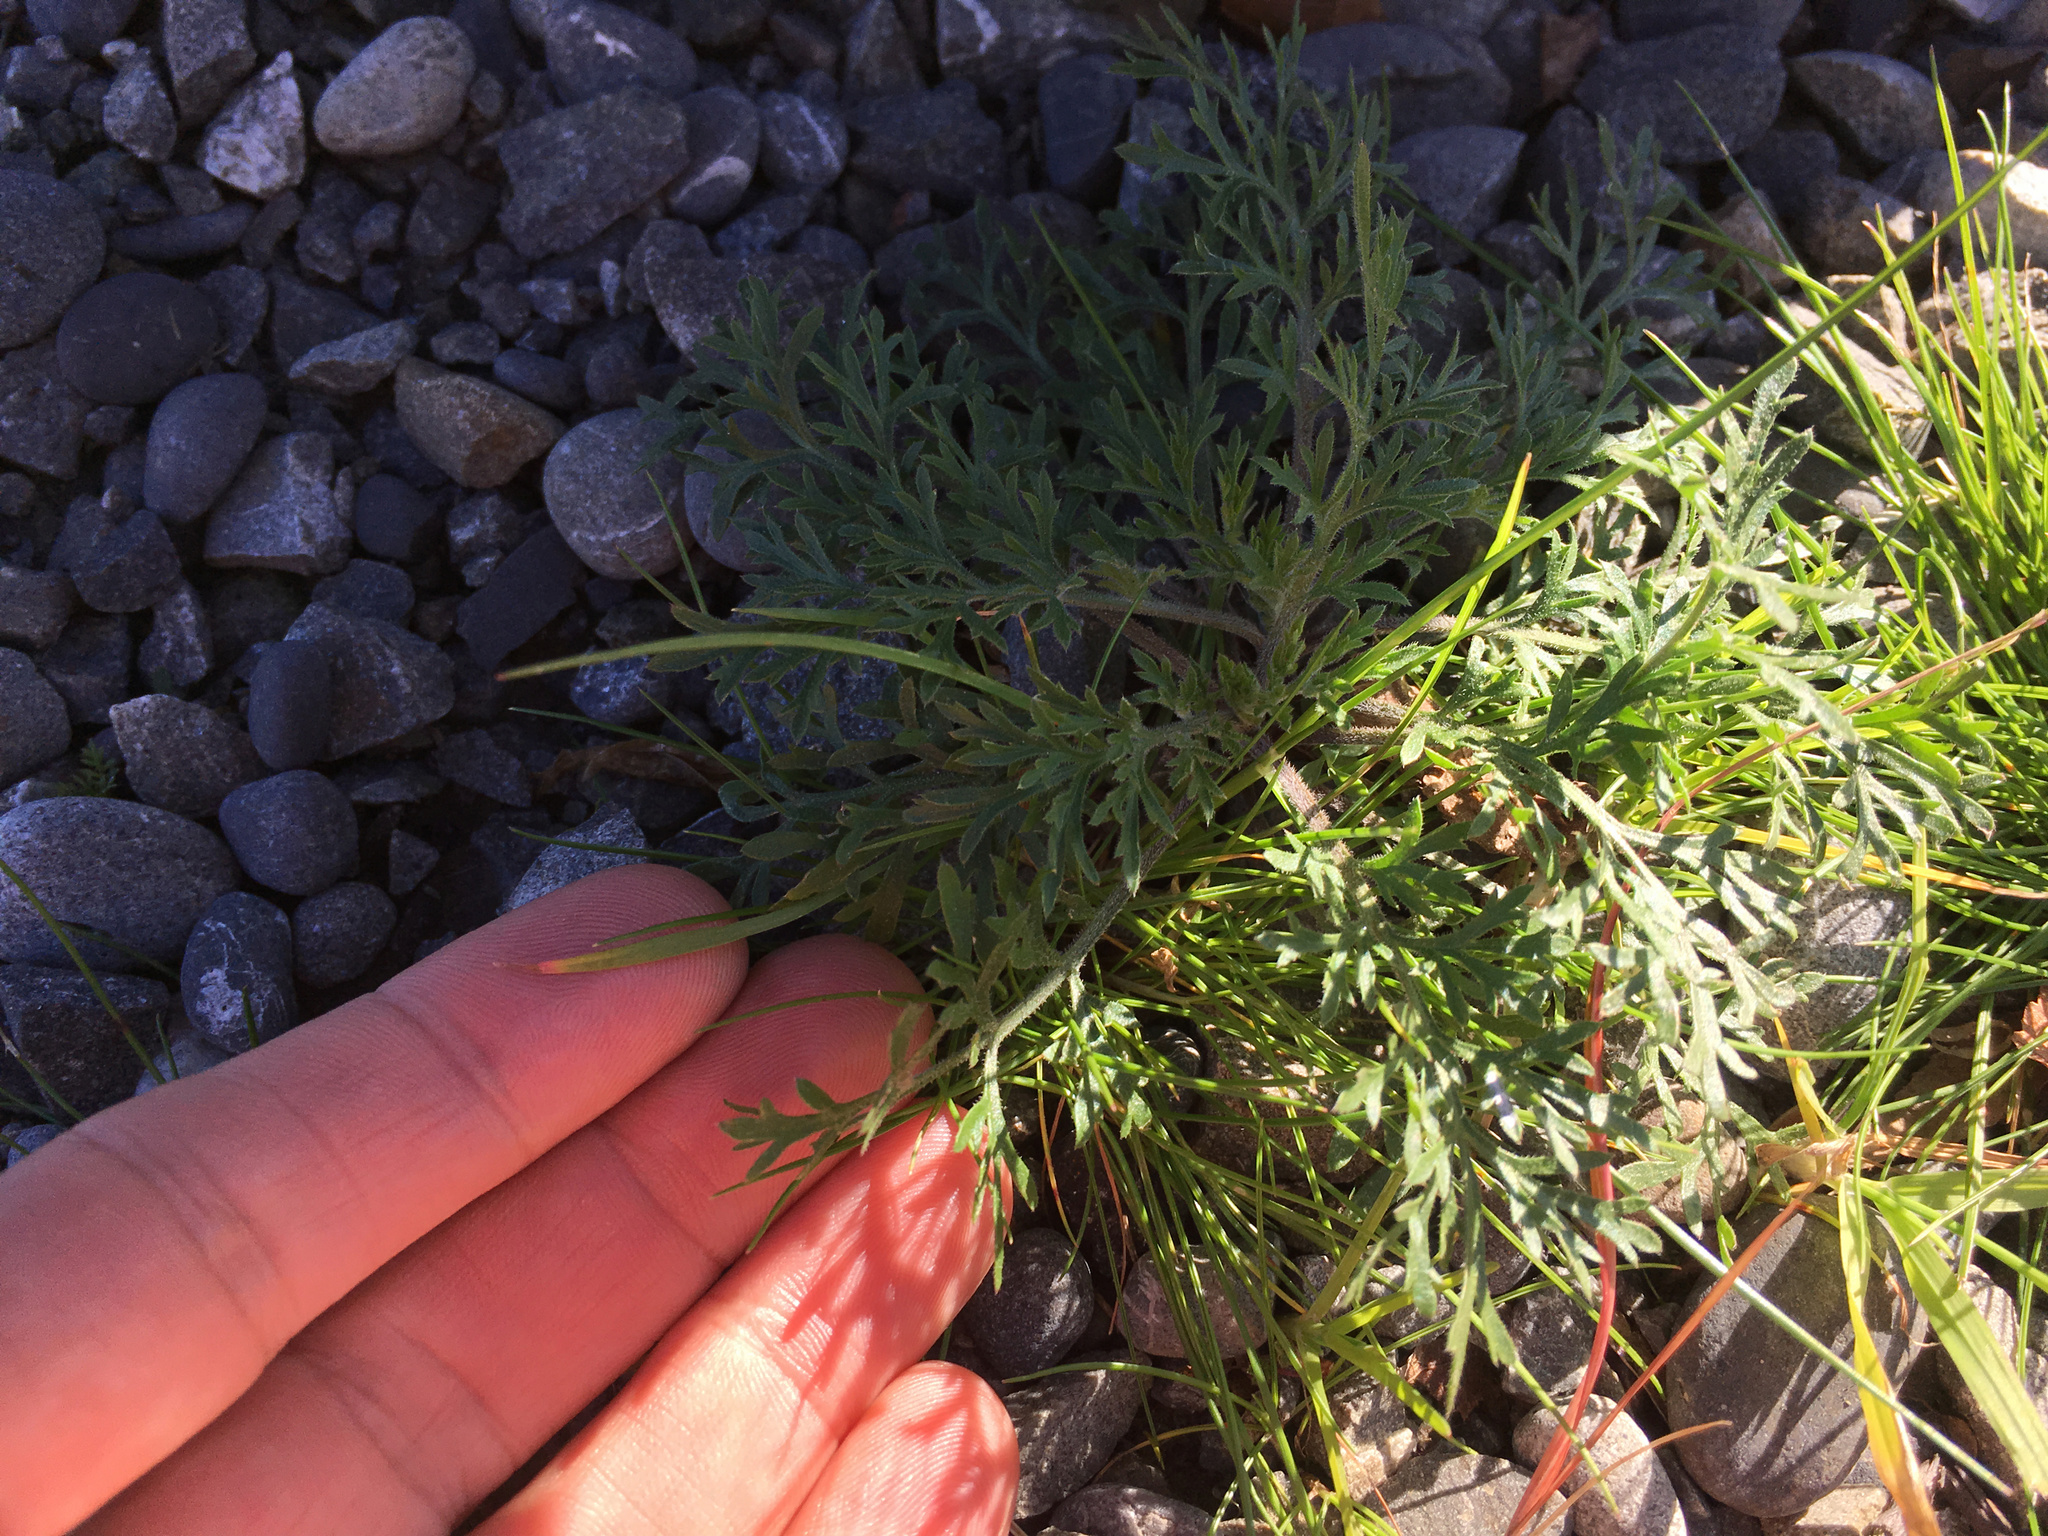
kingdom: Plantae
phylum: Tracheophyta
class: Magnoliopsida
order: Ranunculales
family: Papaveraceae
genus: Eschscholzia
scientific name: Eschscholzia californica
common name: California poppy
